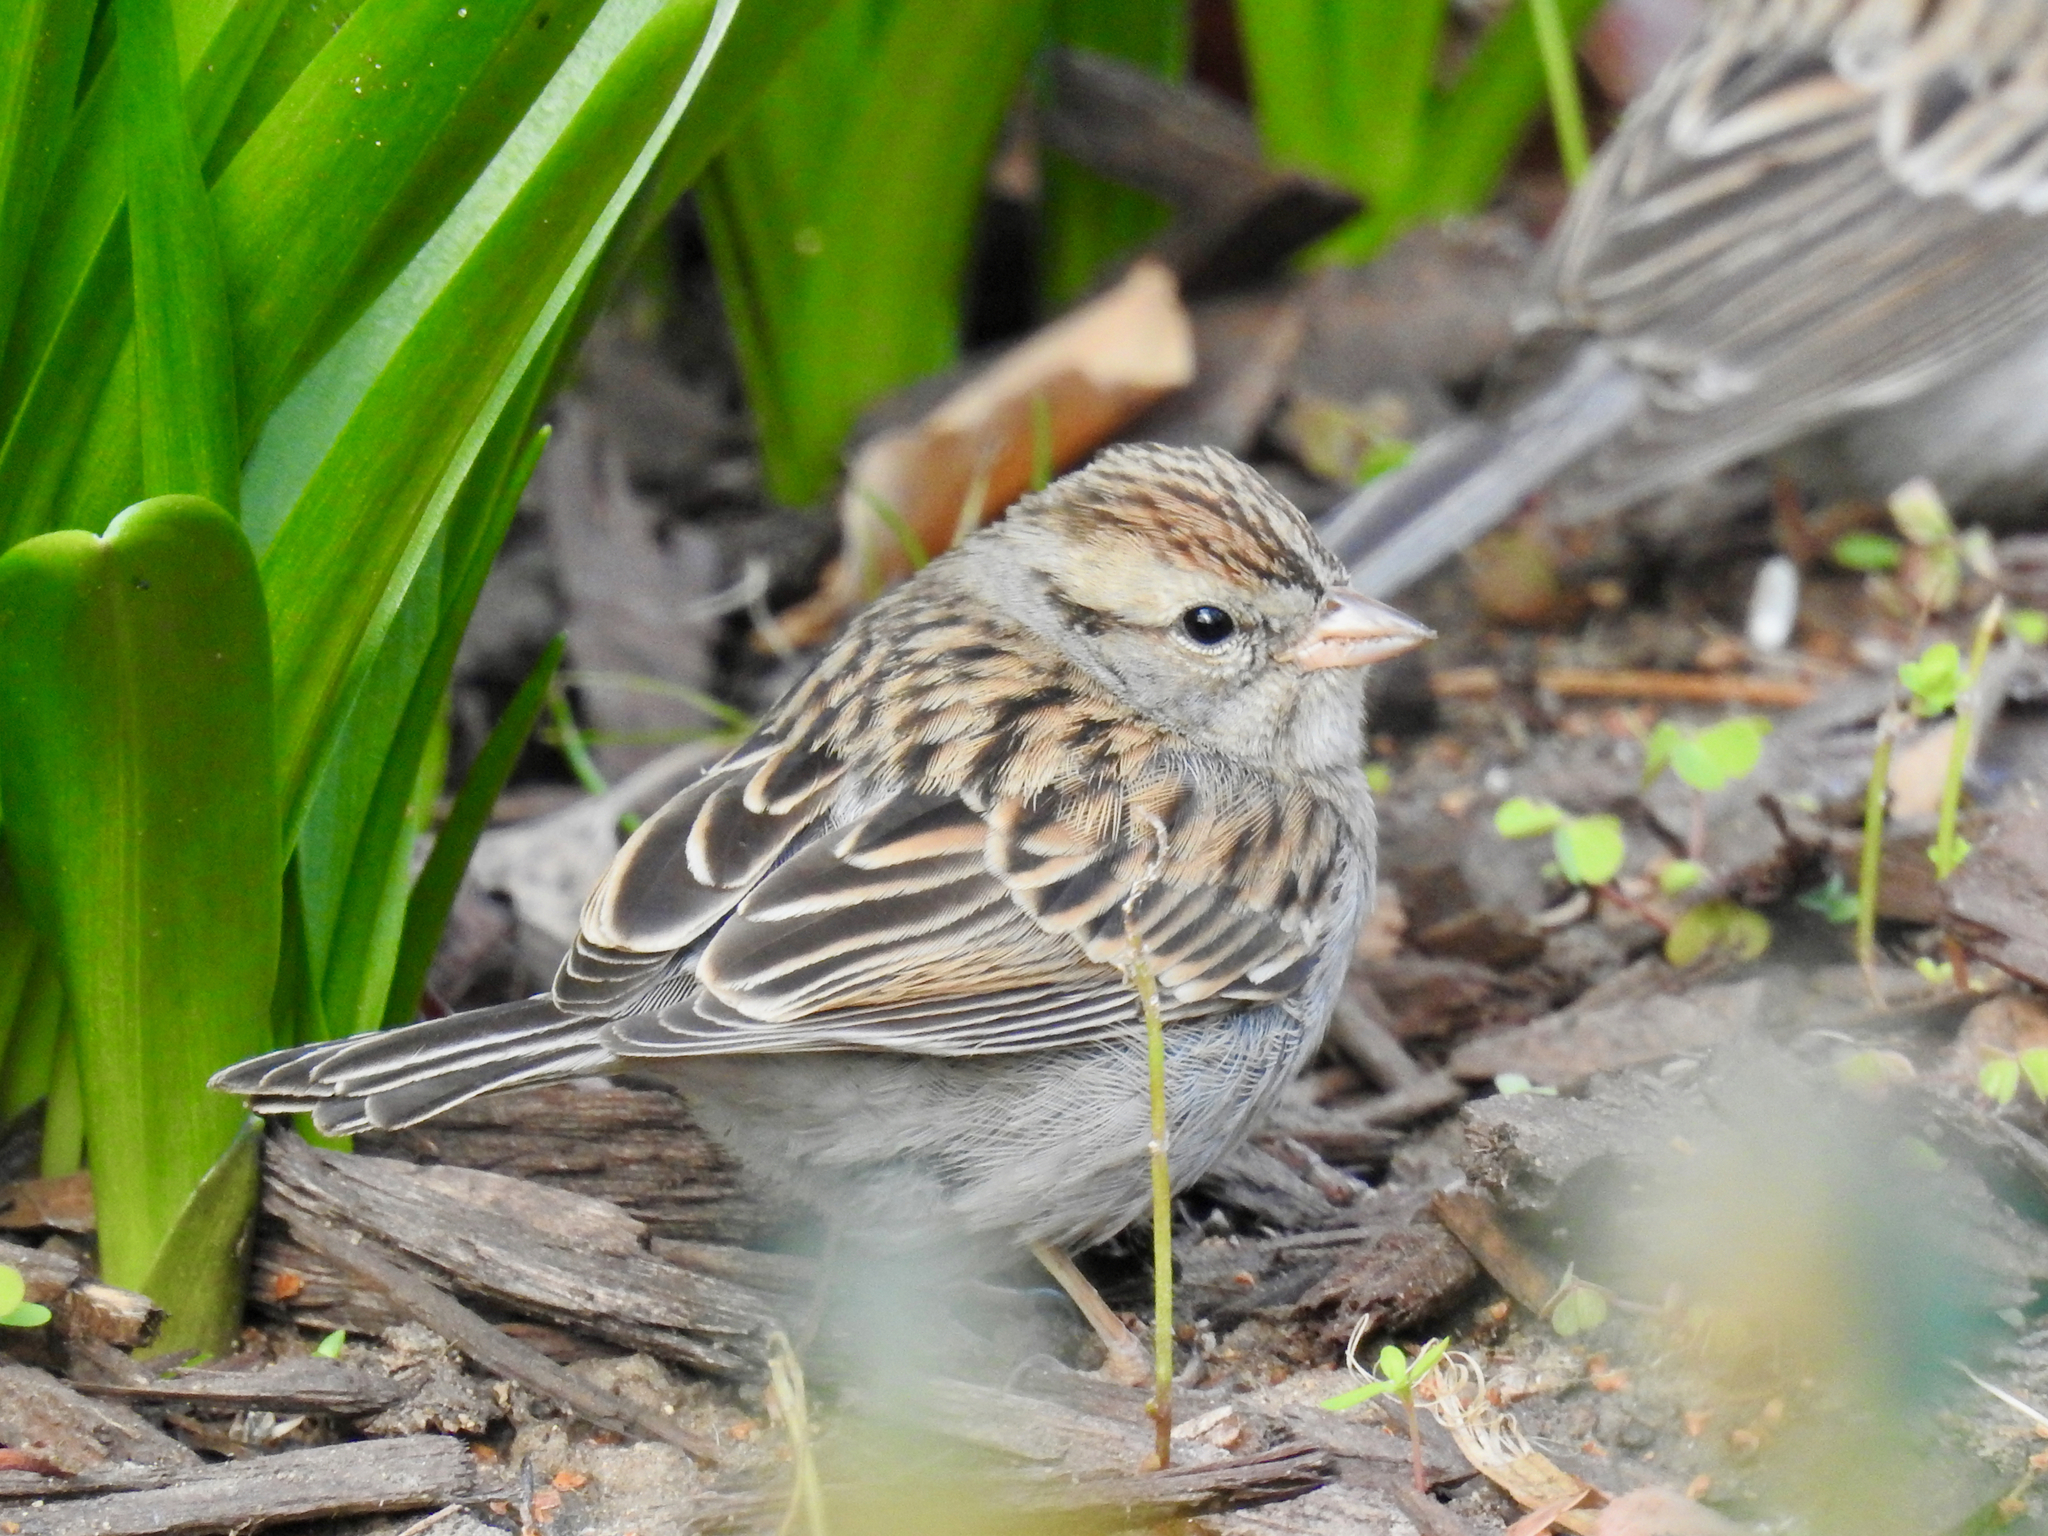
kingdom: Animalia
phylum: Chordata
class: Aves
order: Passeriformes
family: Passerellidae
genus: Spizella
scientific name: Spizella passerina
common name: Chipping sparrow
